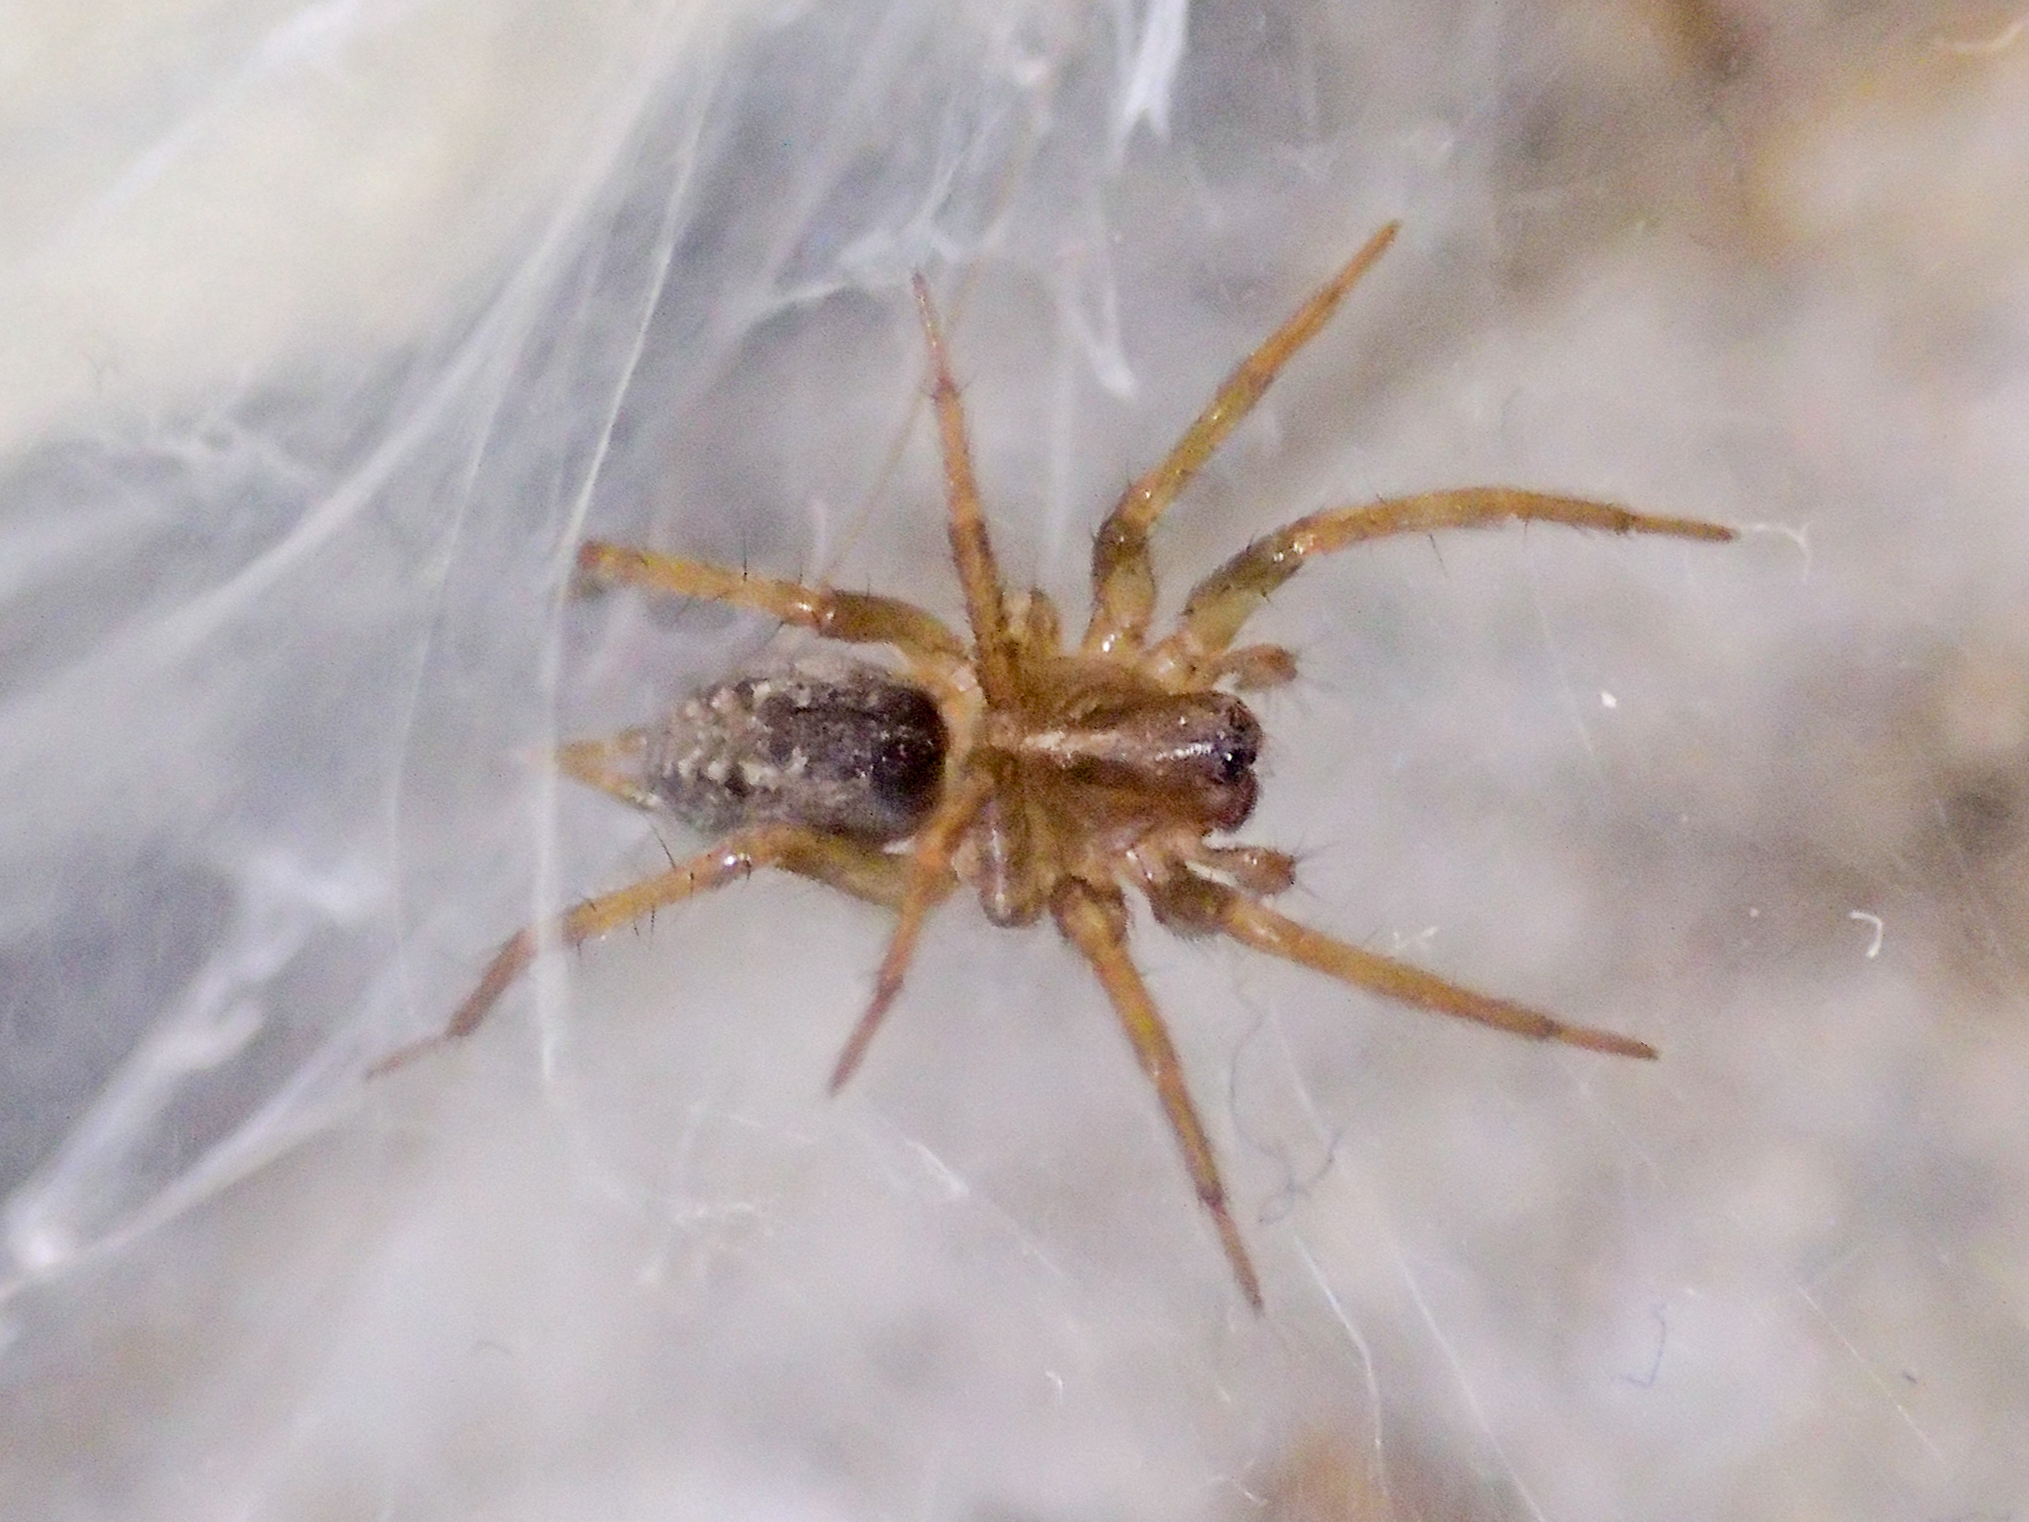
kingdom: Animalia
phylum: Arthropoda
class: Arachnida
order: Araneae
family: Agelenidae
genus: Lycosoides
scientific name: Lycosoides coarctata
